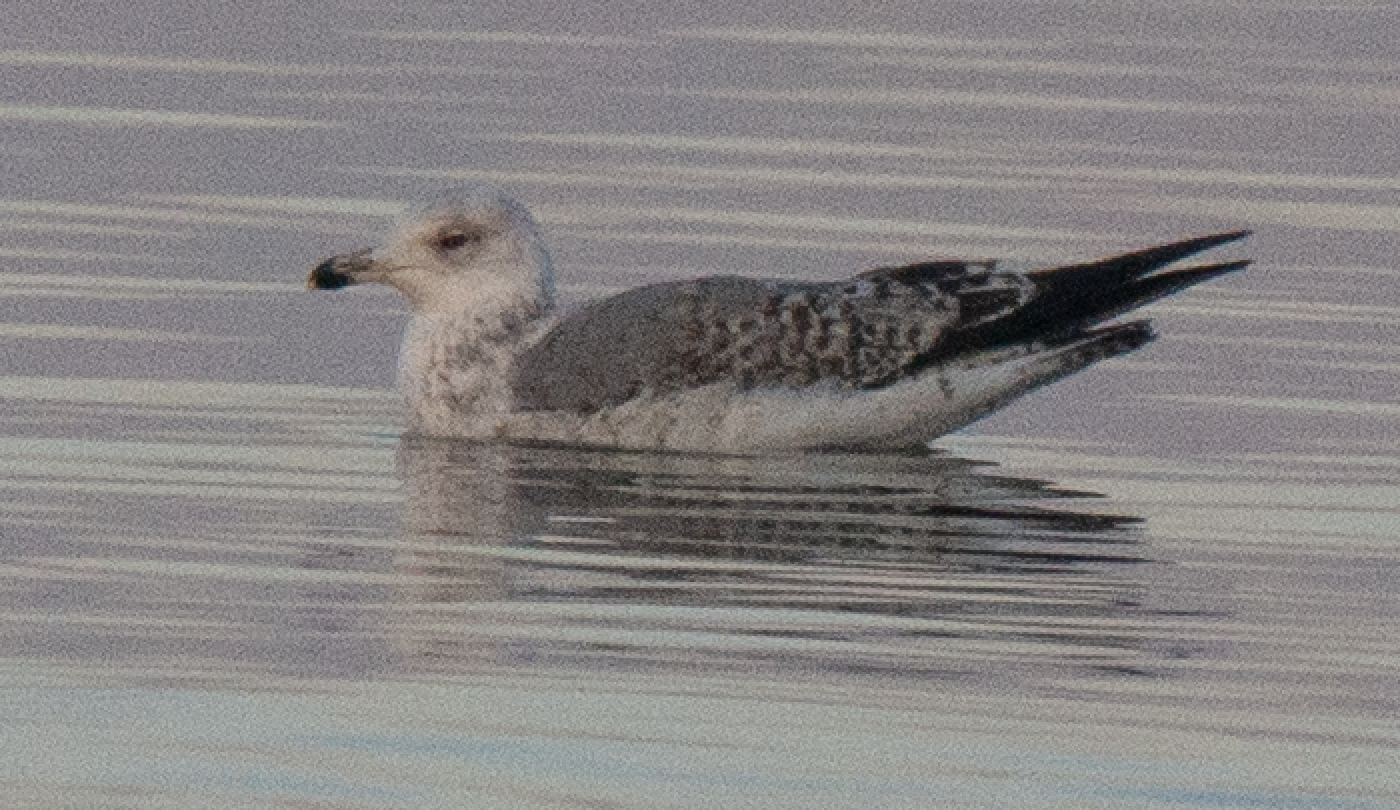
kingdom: Animalia
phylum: Chordata
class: Aves
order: Charadriiformes
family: Laridae
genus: Larus
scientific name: Larus michahellis
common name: Yellow-legged gull
